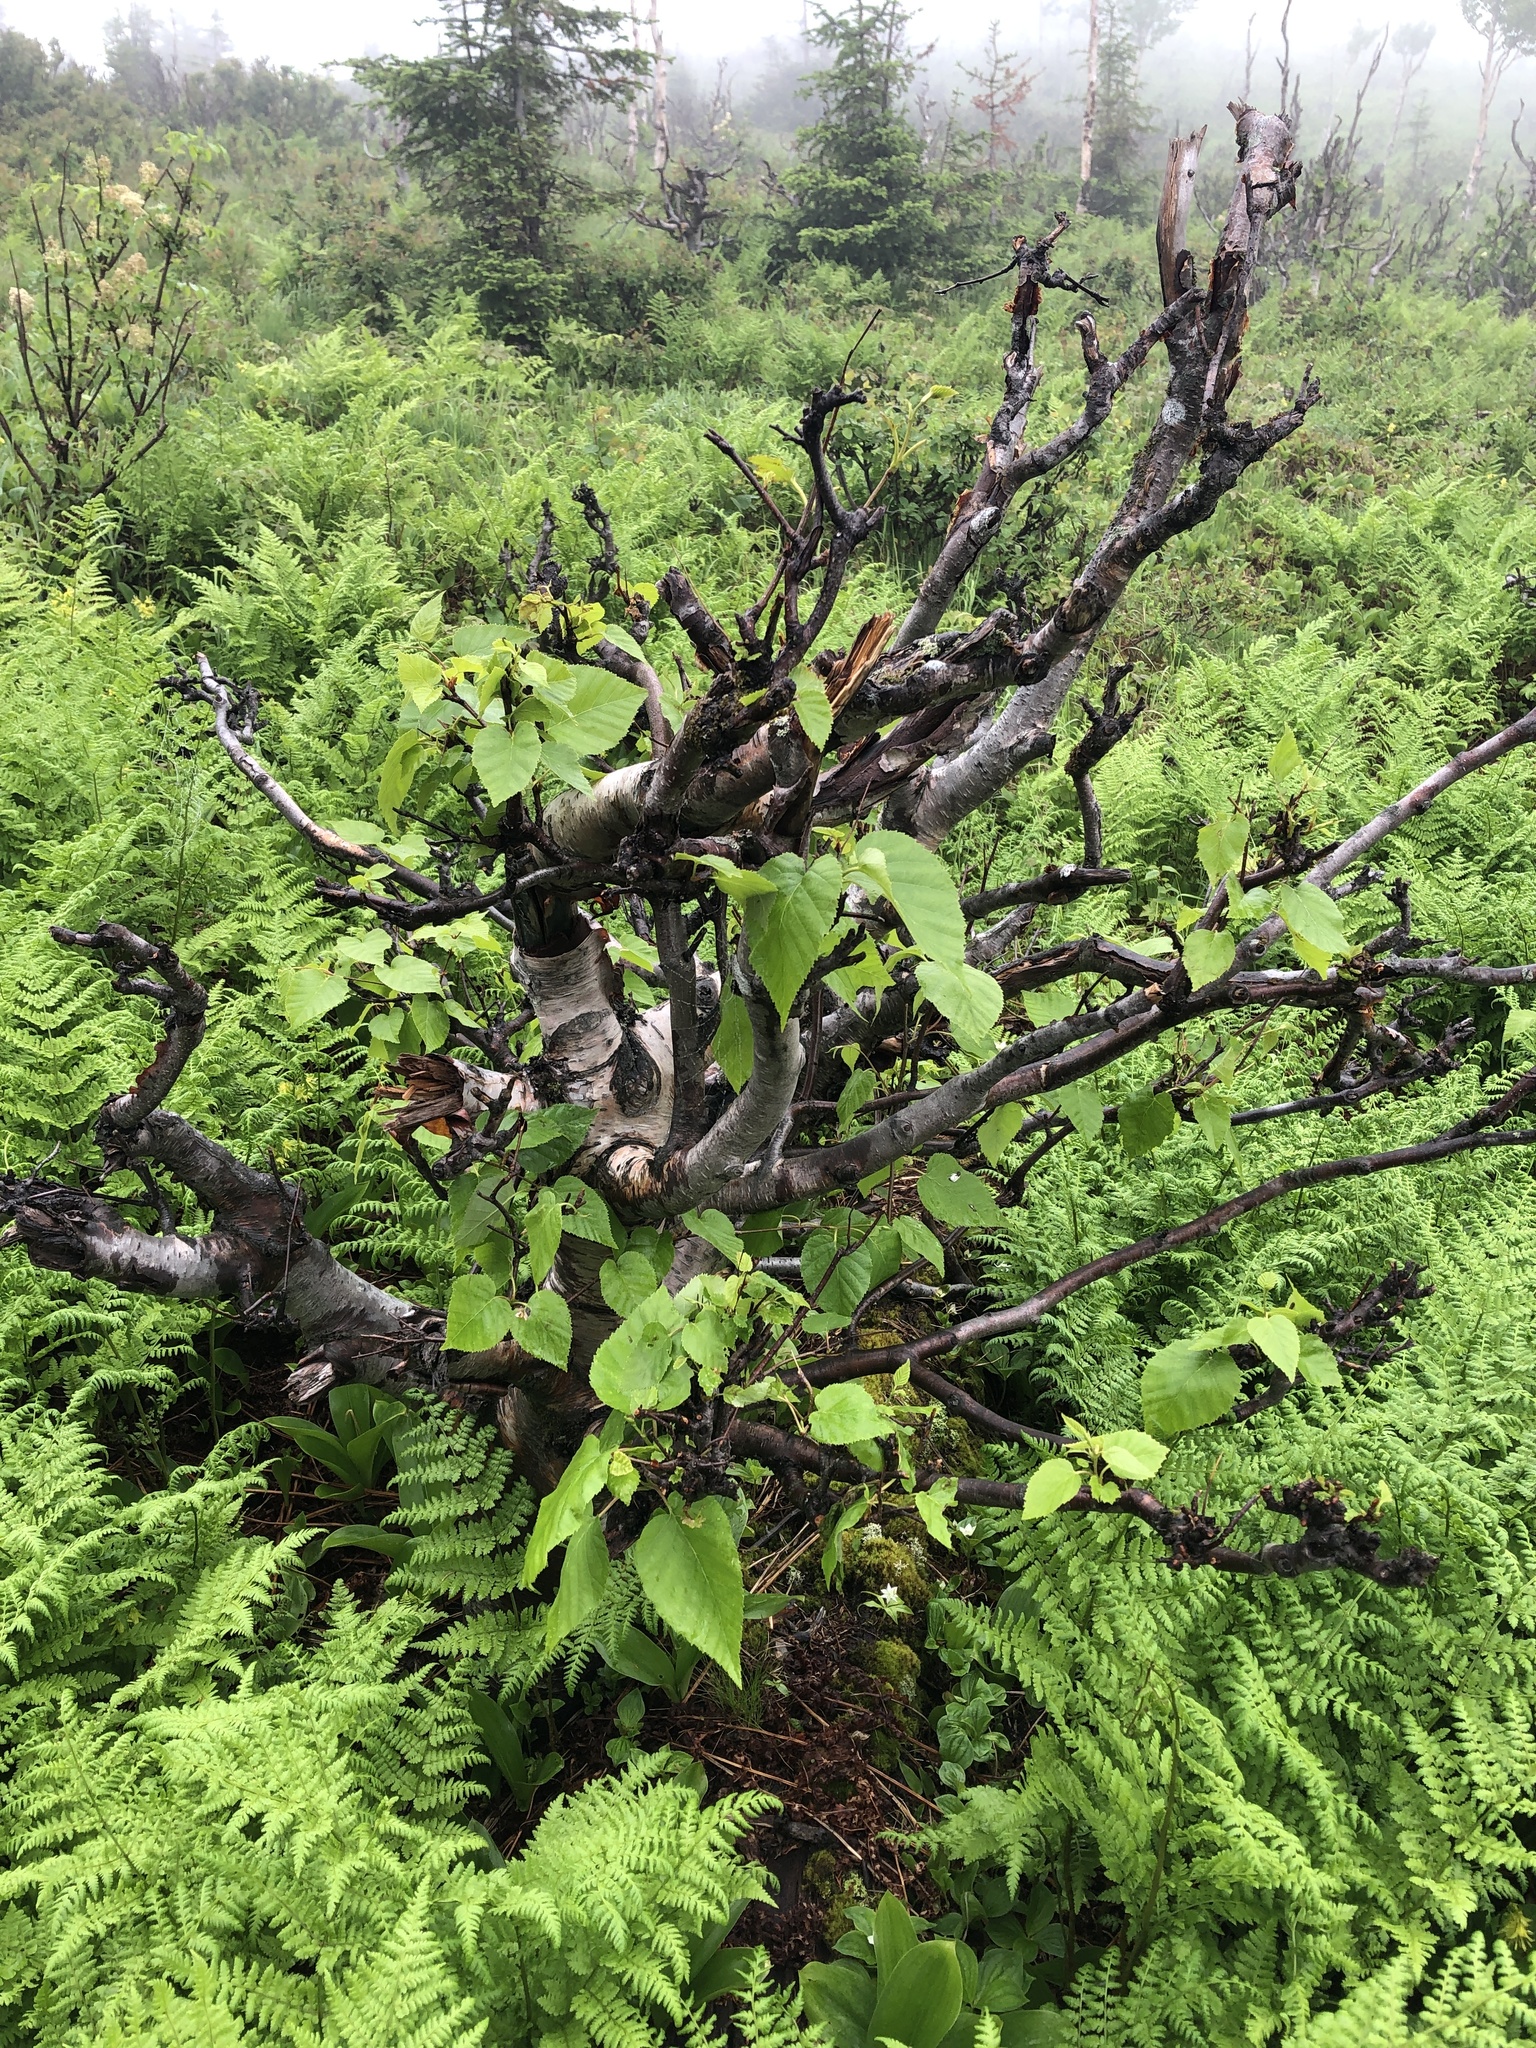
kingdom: Plantae
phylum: Tracheophyta
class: Magnoliopsida
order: Fagales
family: Betulaceae
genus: Betula
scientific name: Betula papyrifera
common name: Paper birch
